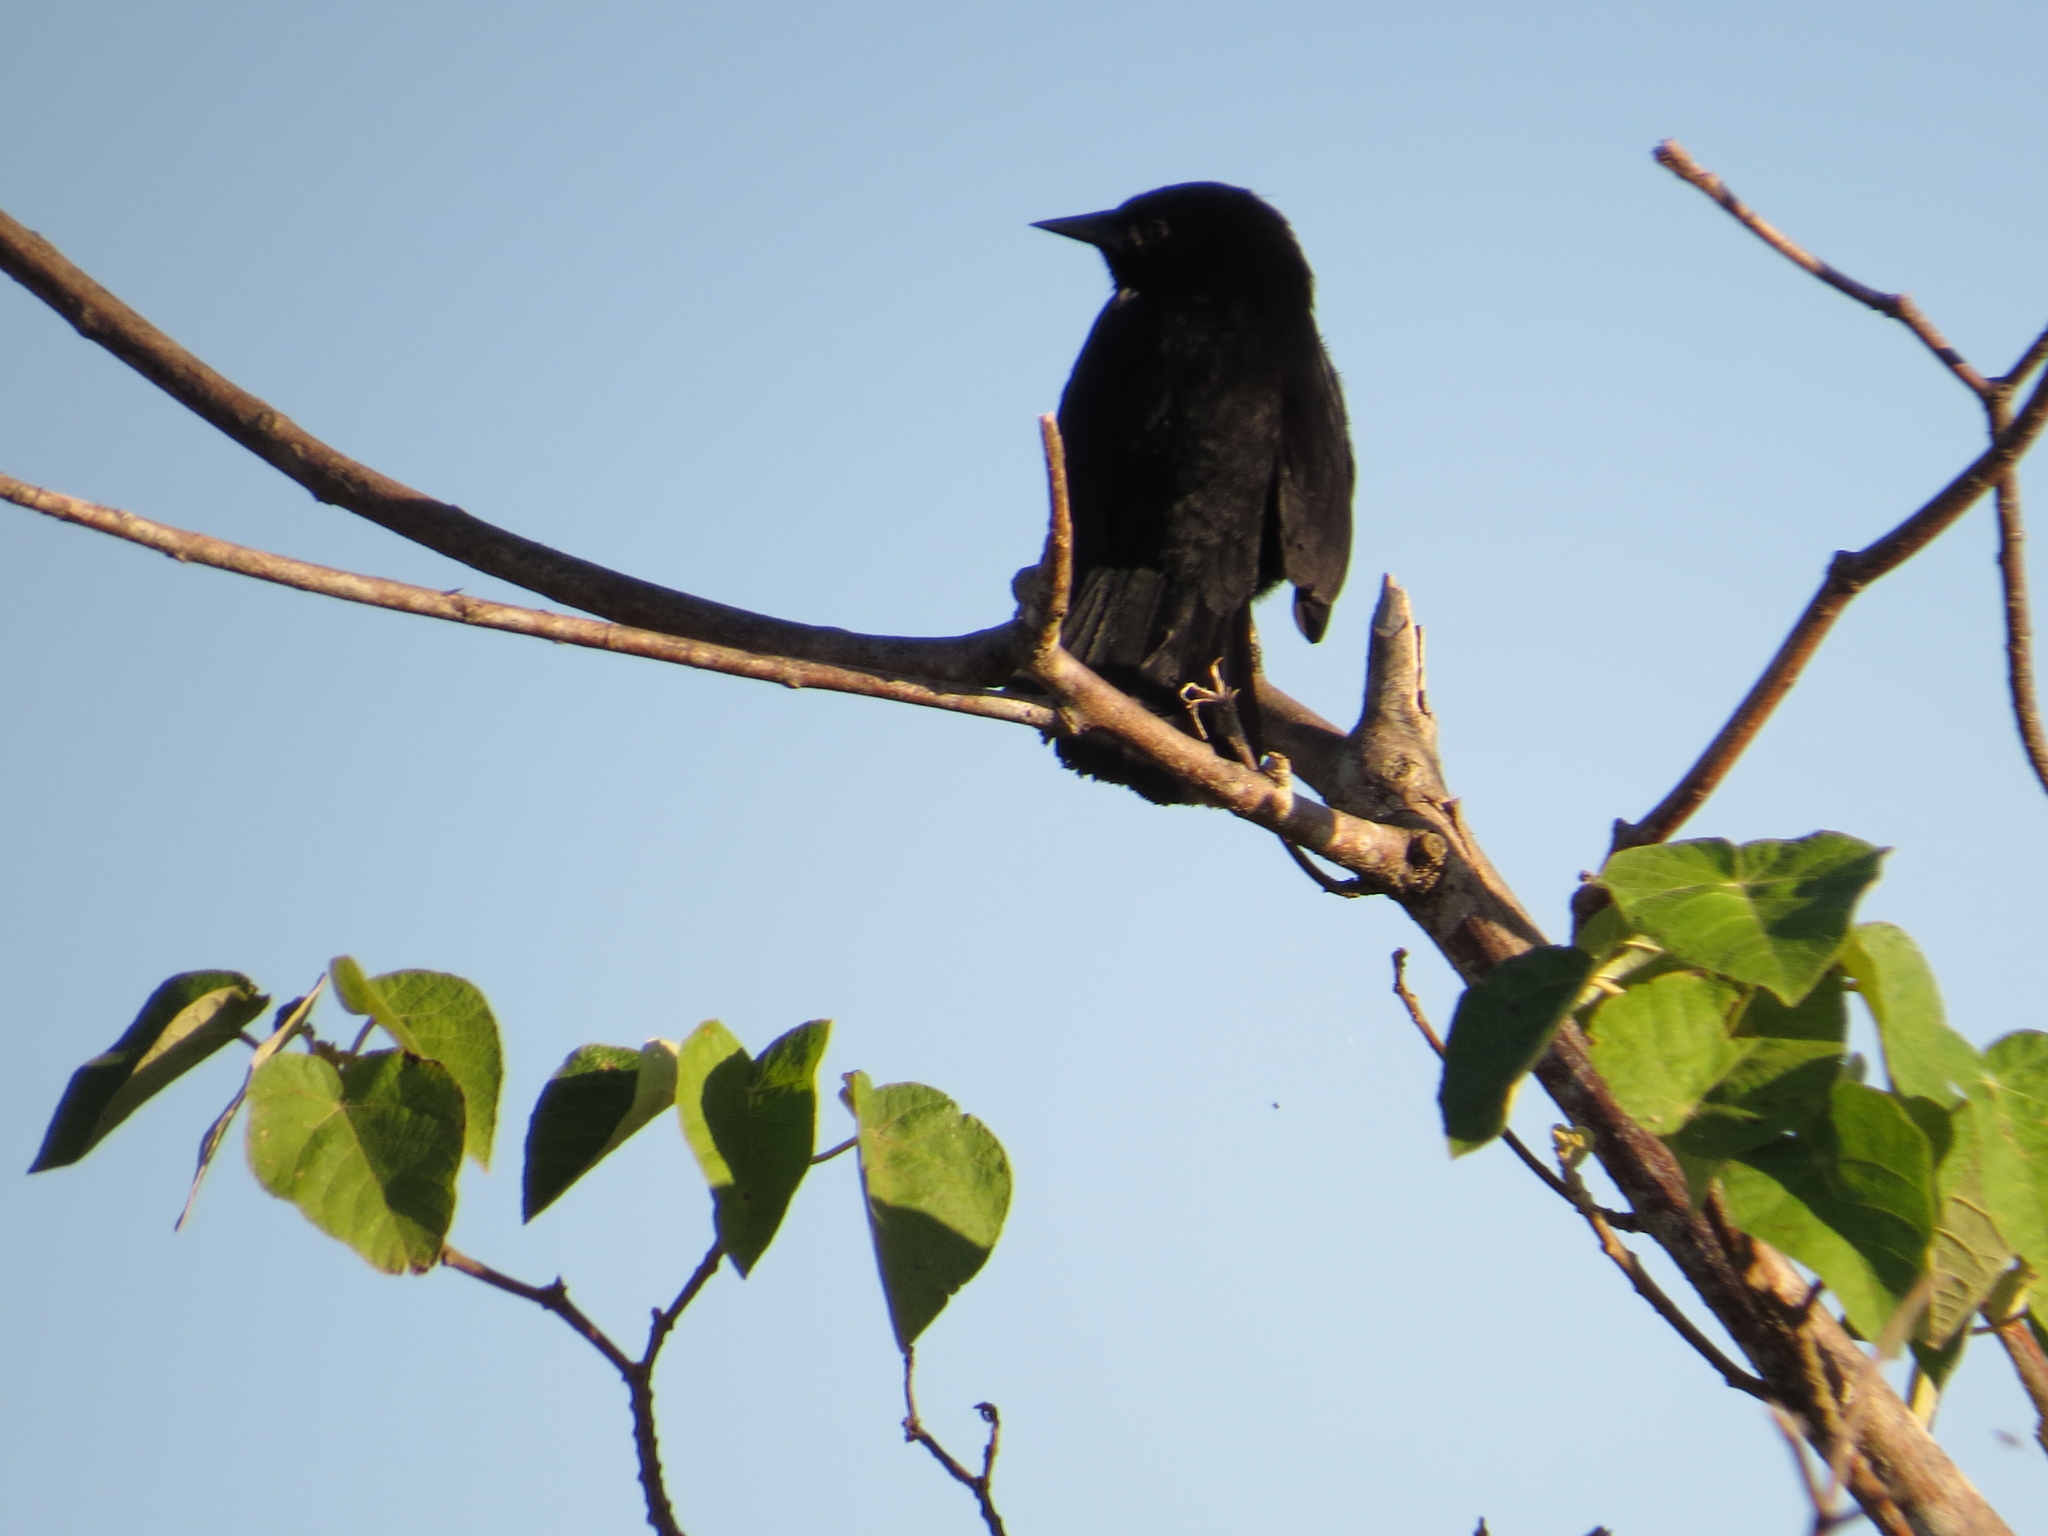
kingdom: Animalia
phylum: Chordata
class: Aves
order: Passeriformes
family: Icteridae
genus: Agelasticus
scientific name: Agelasticus cyanopus
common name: Unicolored blackbird
